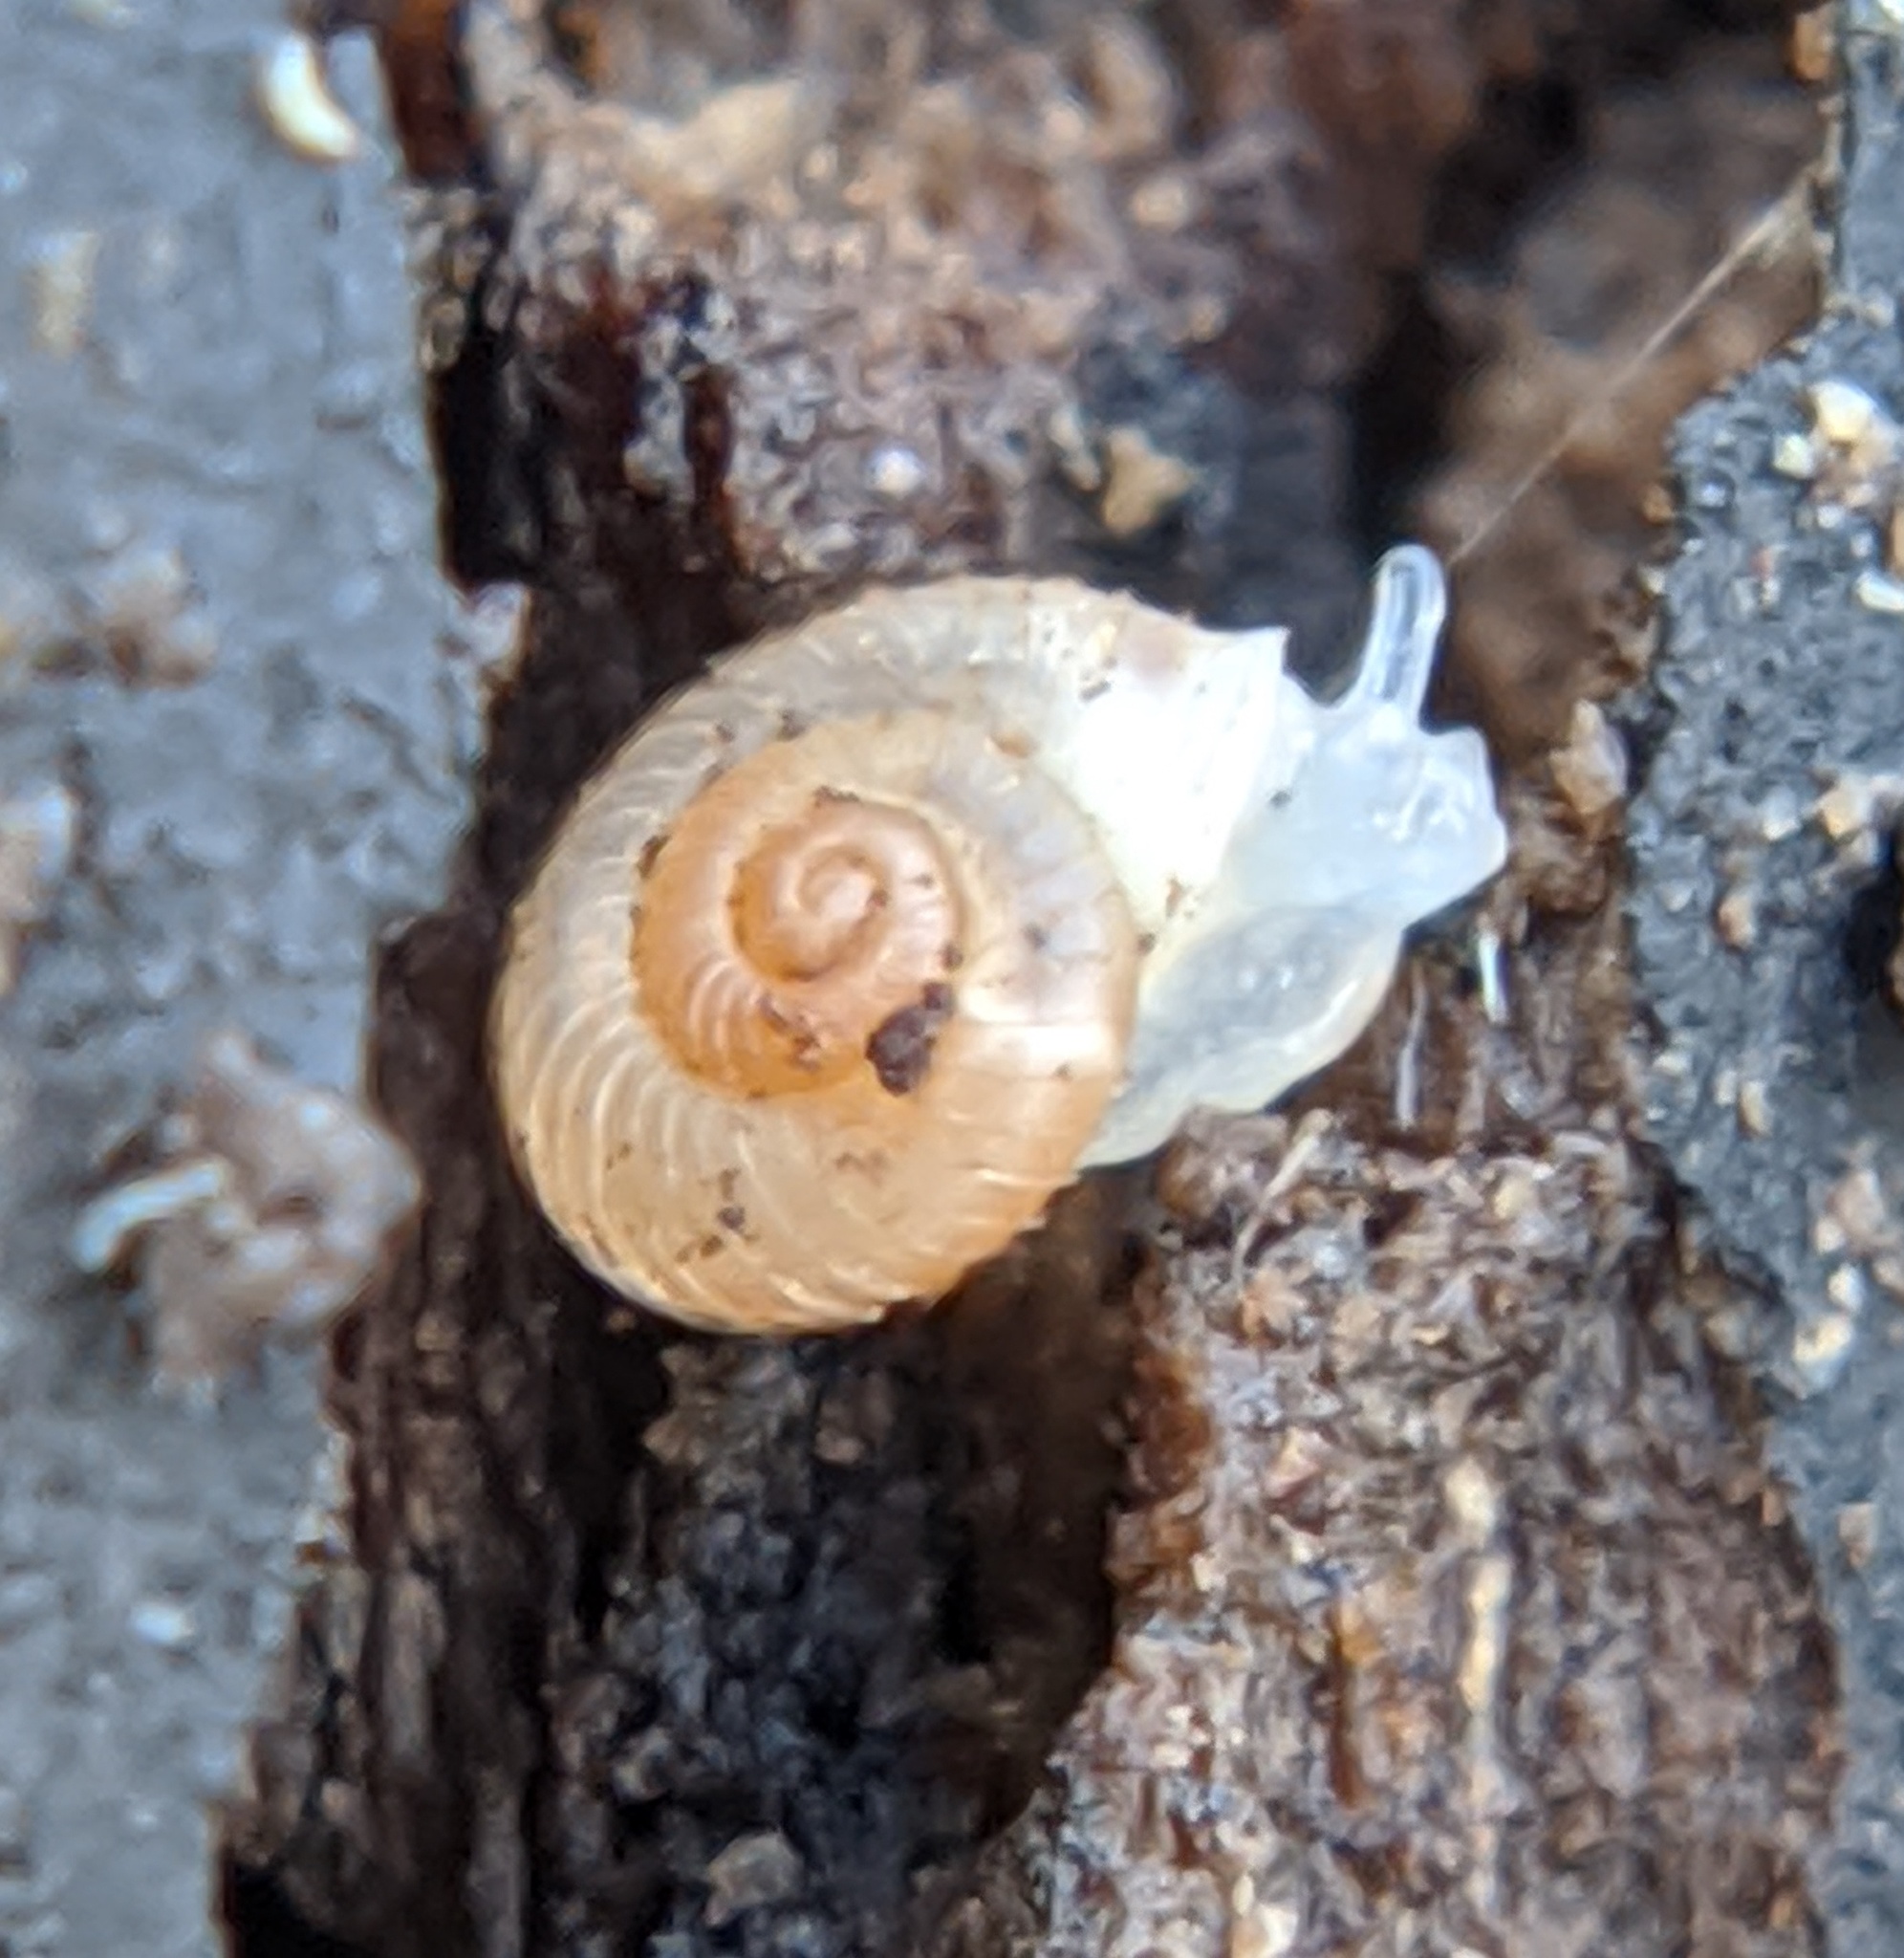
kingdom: Animalia
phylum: Mollusca
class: Gastropoda
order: Stylommatophora
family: Valloniidae
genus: Vallonia
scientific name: Vallonia costata
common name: Ribbed grass snail
